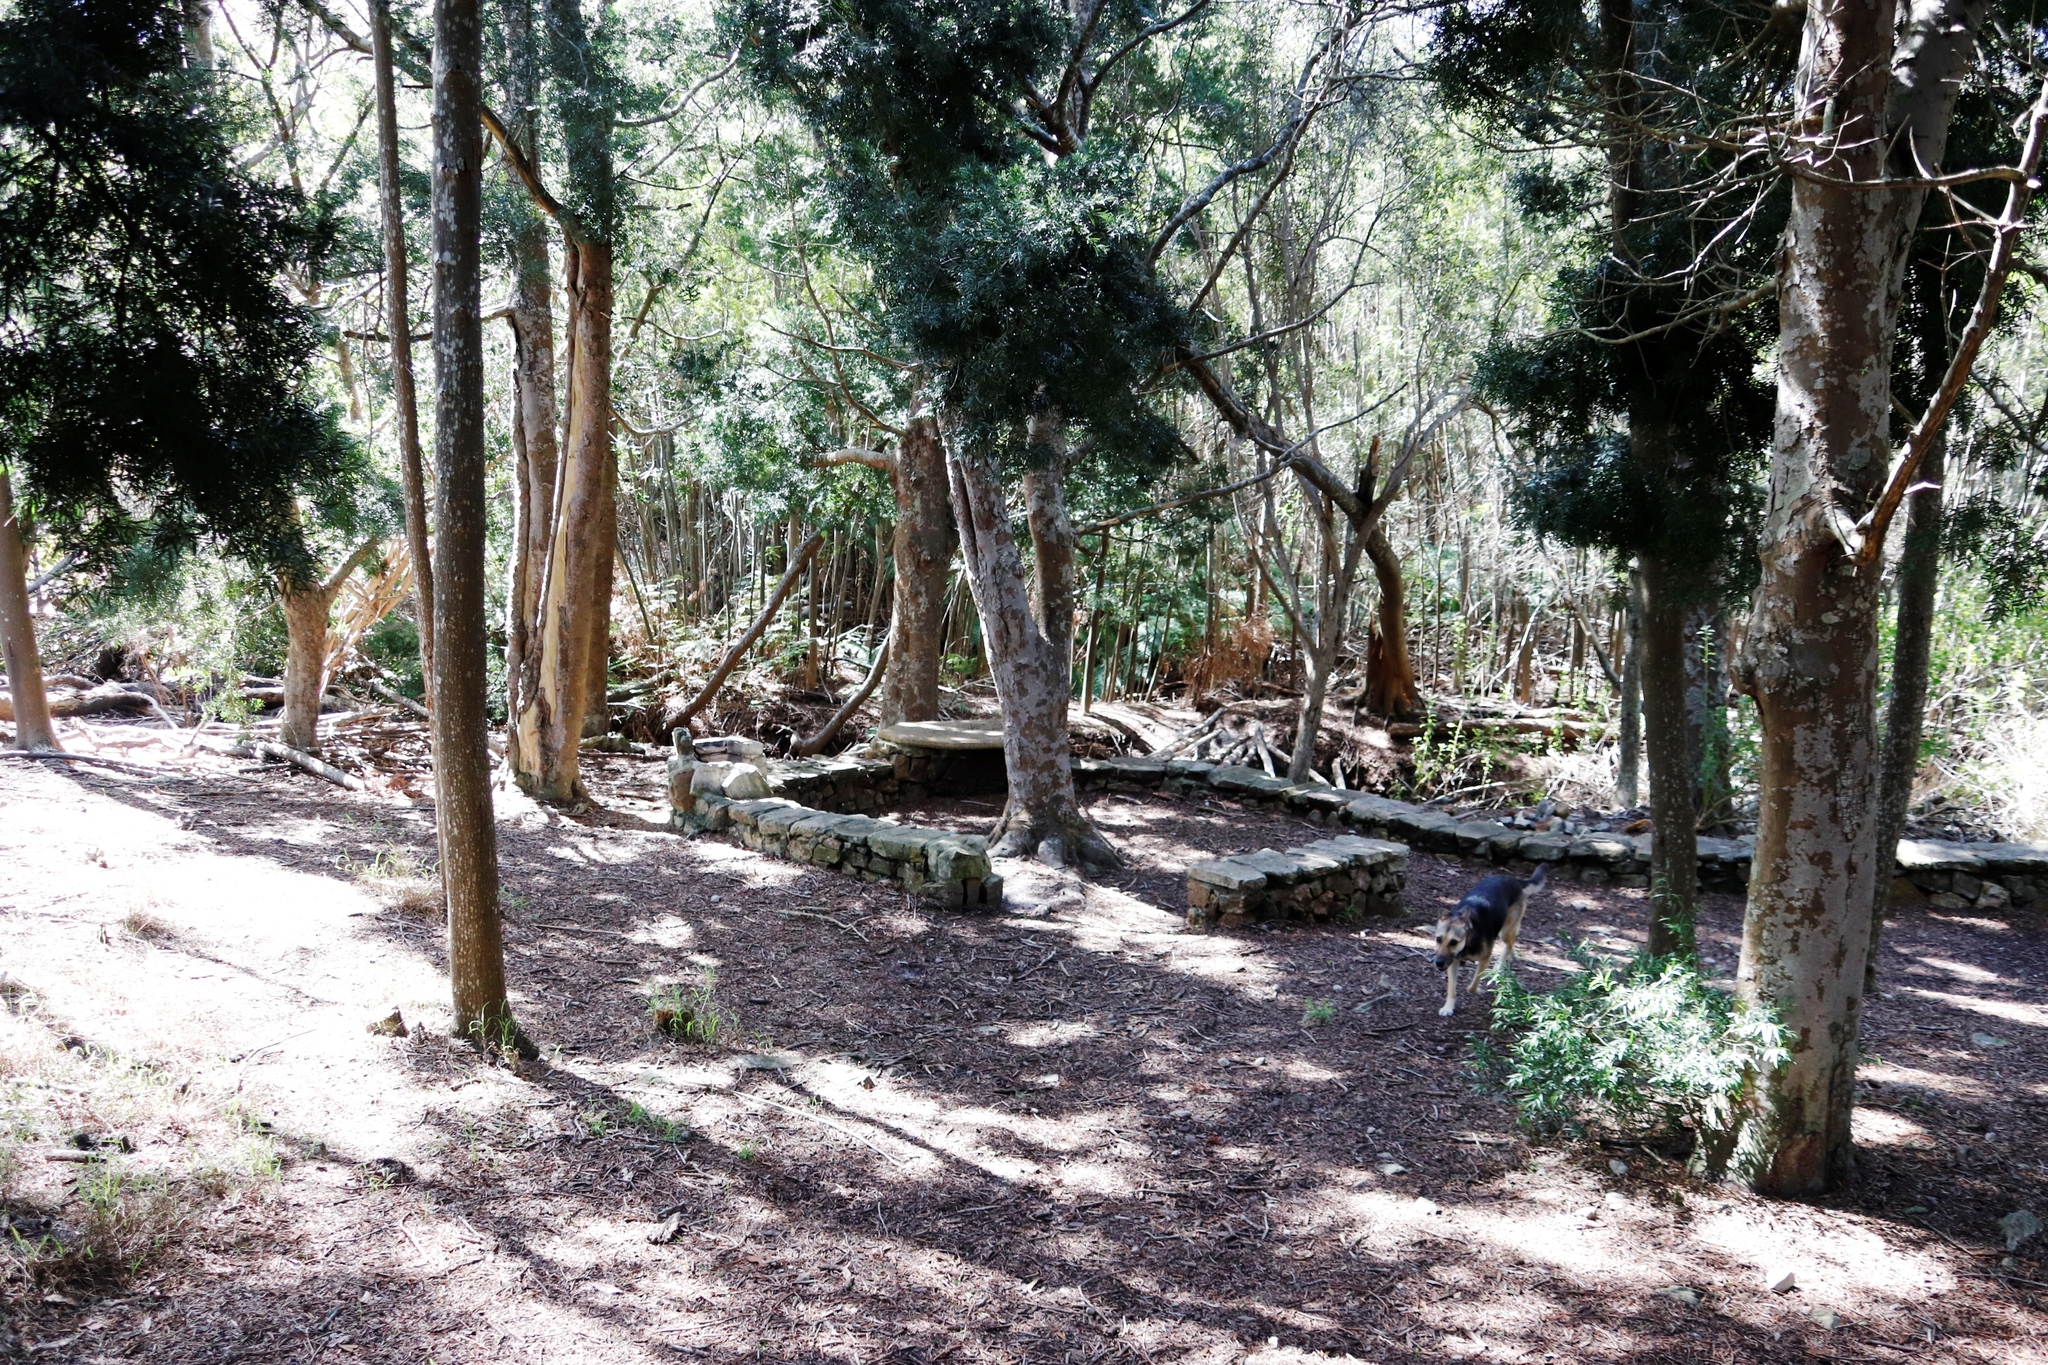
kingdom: Plantae
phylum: Tracheophyta
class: Pinopsida
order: Pinales
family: Podocarpaceae
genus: Afrocarpus
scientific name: Afrocarpus falcatus
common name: Bastard yellowwood
